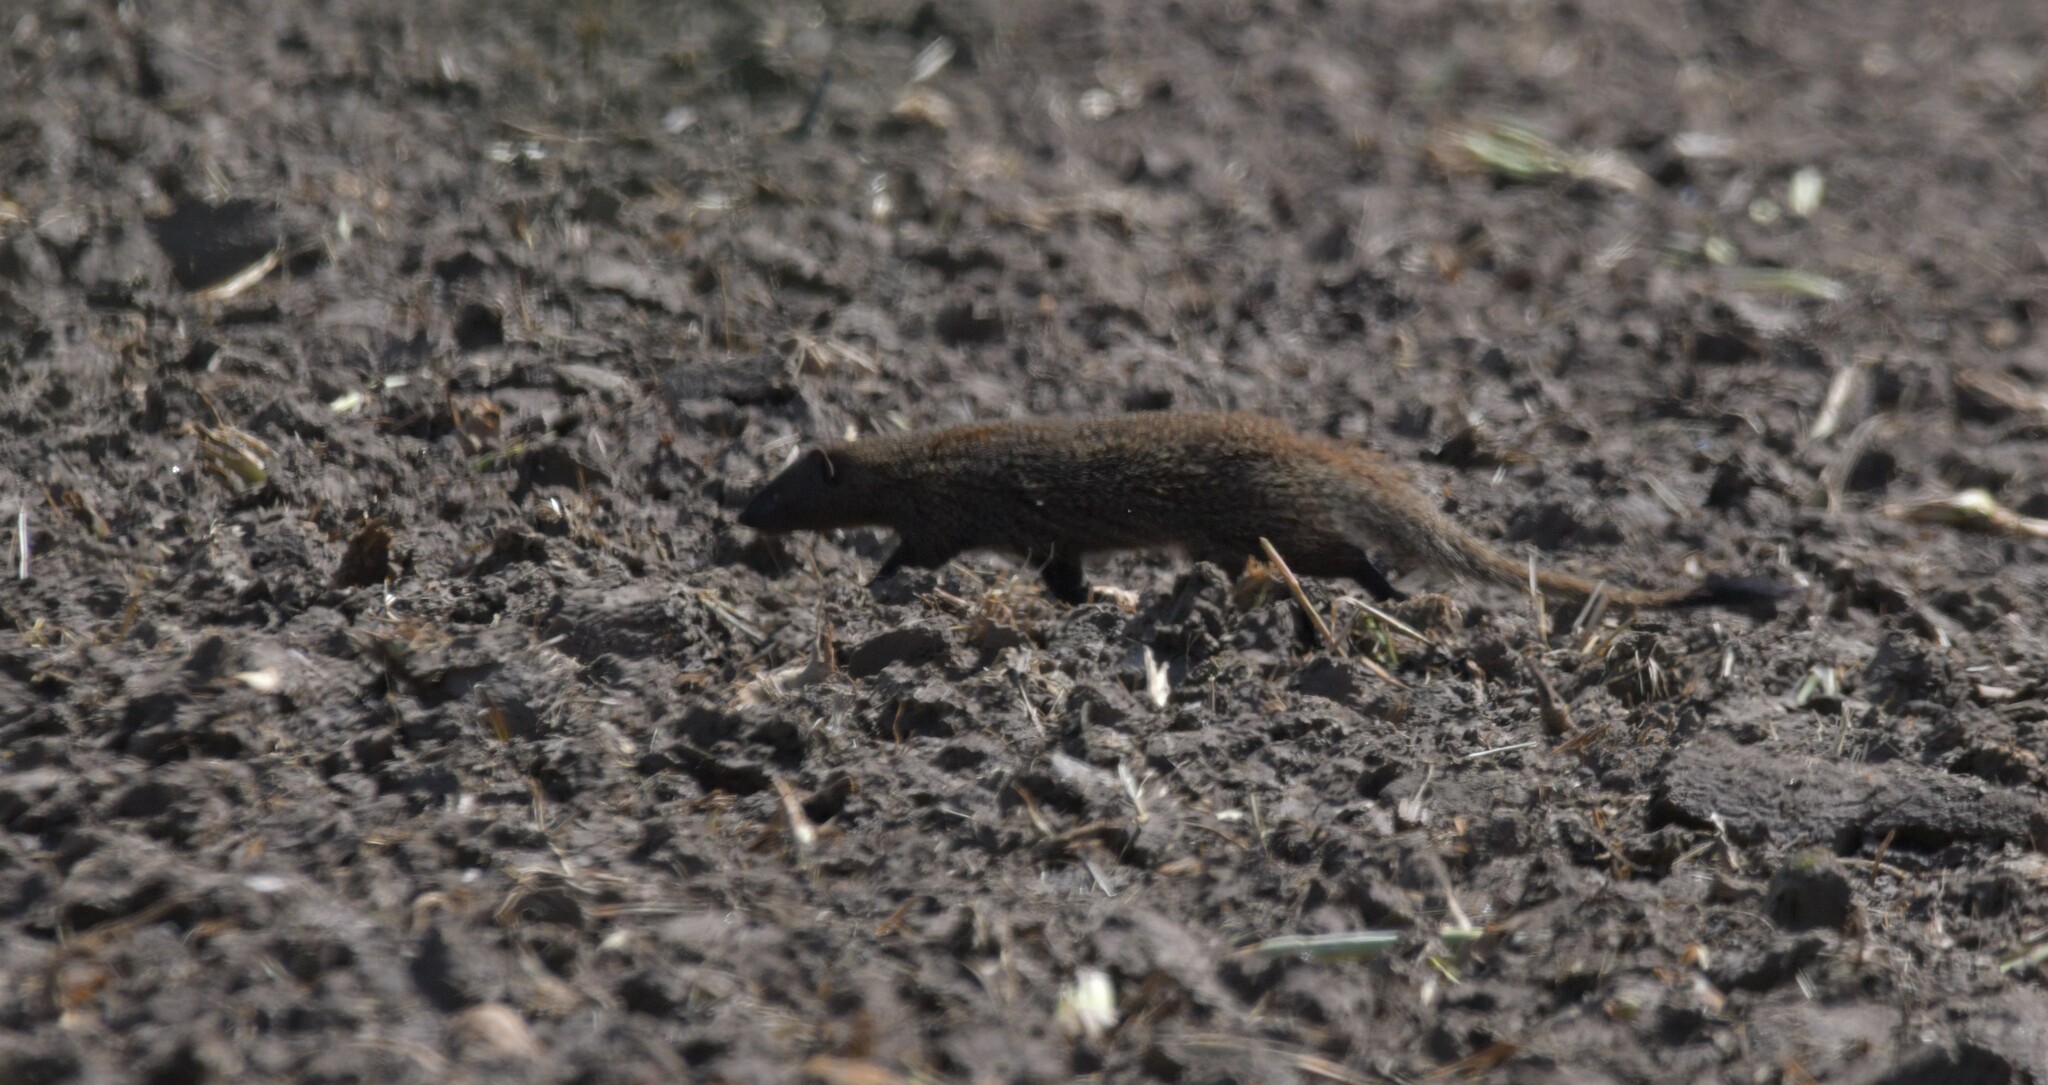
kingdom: Animalia
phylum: Chordata
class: Mammalia
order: Carnivora
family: Herpestidae
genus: Herpestes
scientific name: Herpestes ichneumon
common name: Egyptian mongoose
